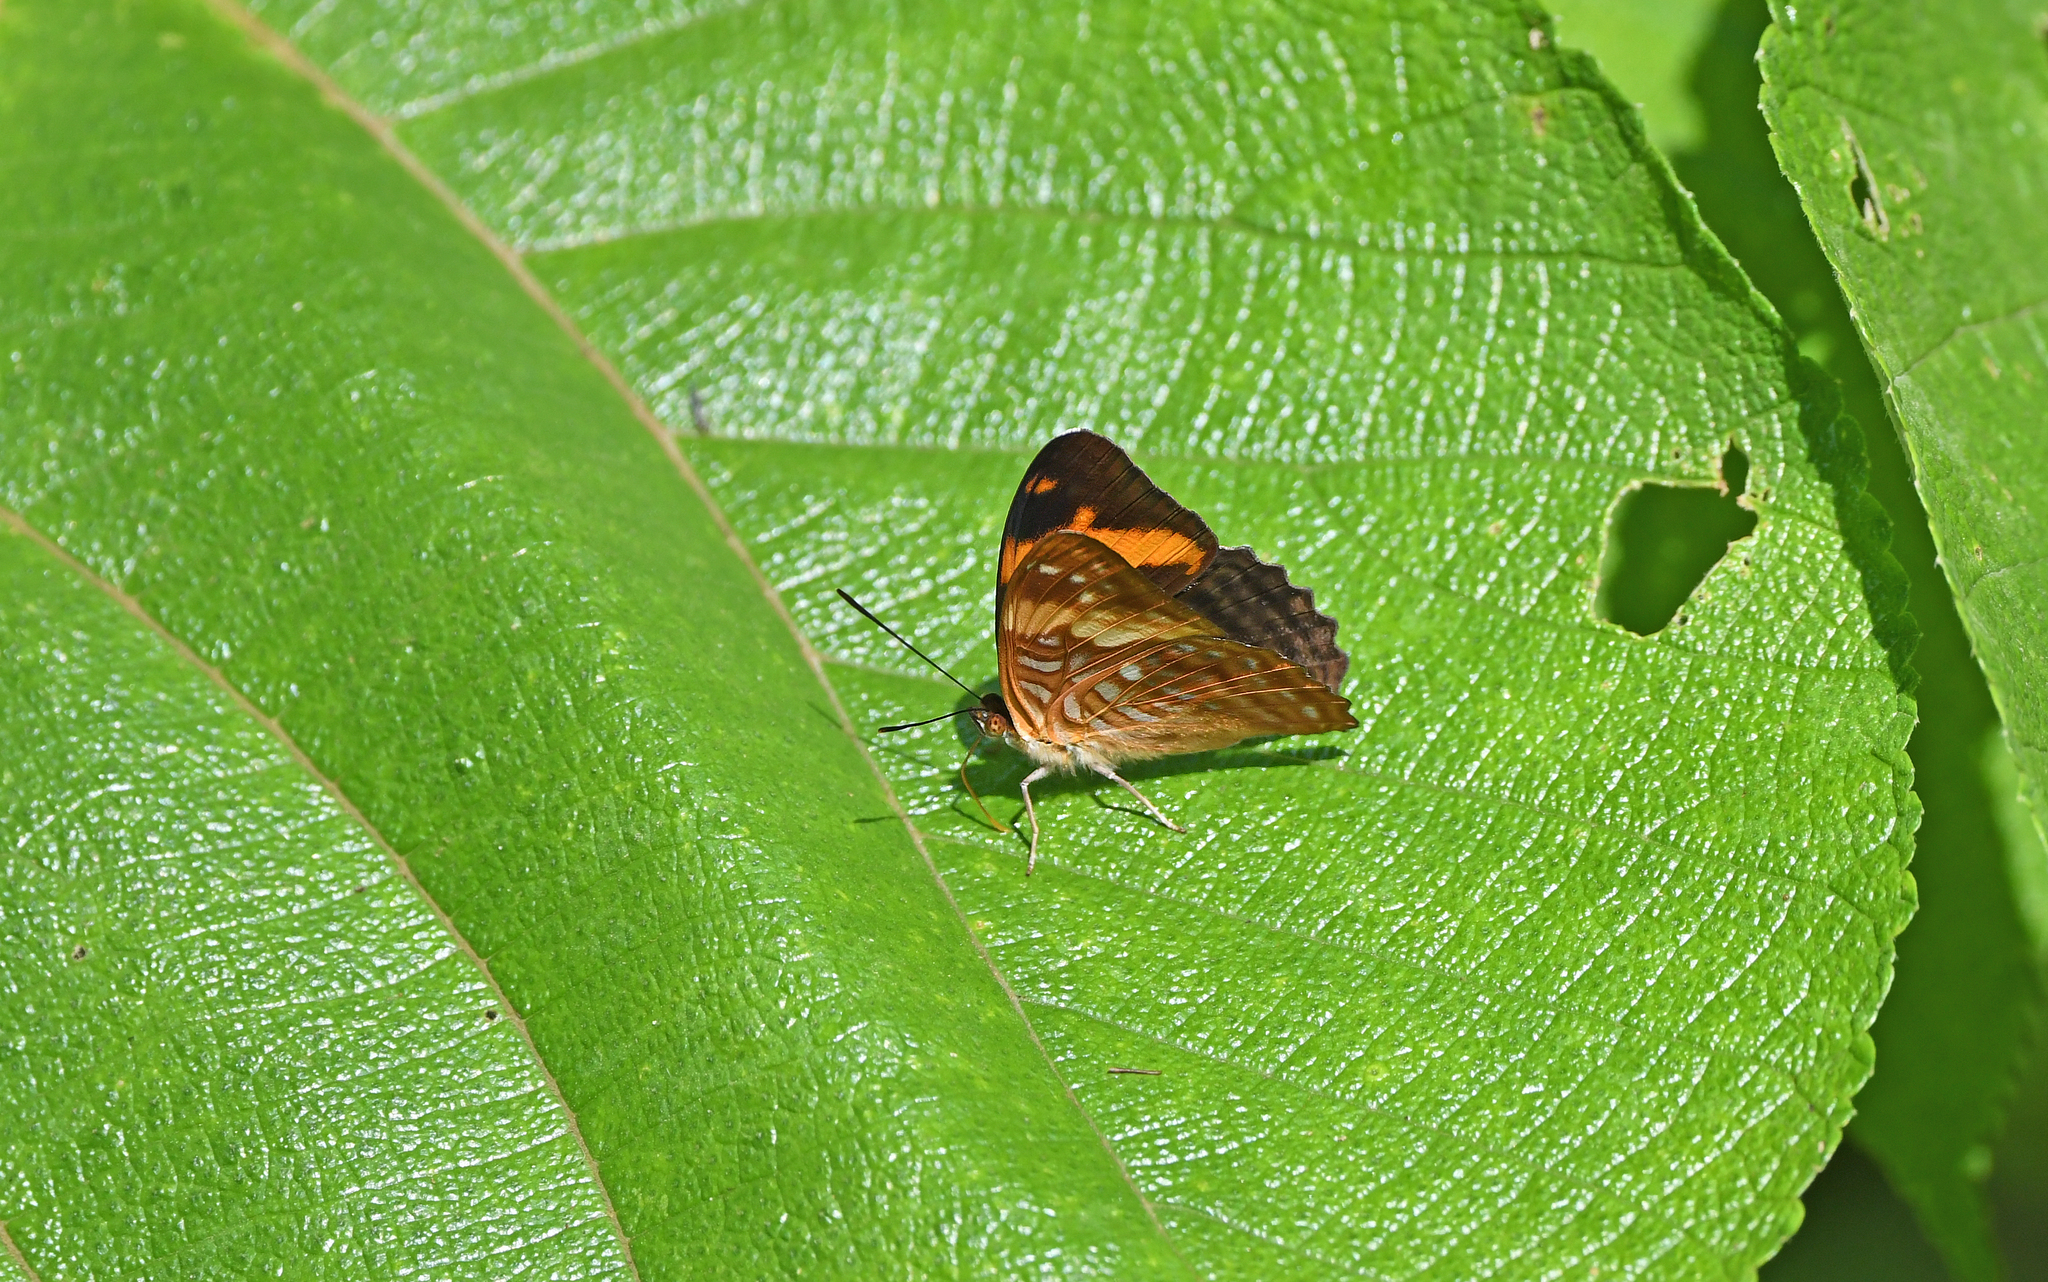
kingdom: Animalia
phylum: Arthropoda
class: Insecta
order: Lepidoptera
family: Nymphalidae
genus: Limenitis
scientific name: Limenitis zina
